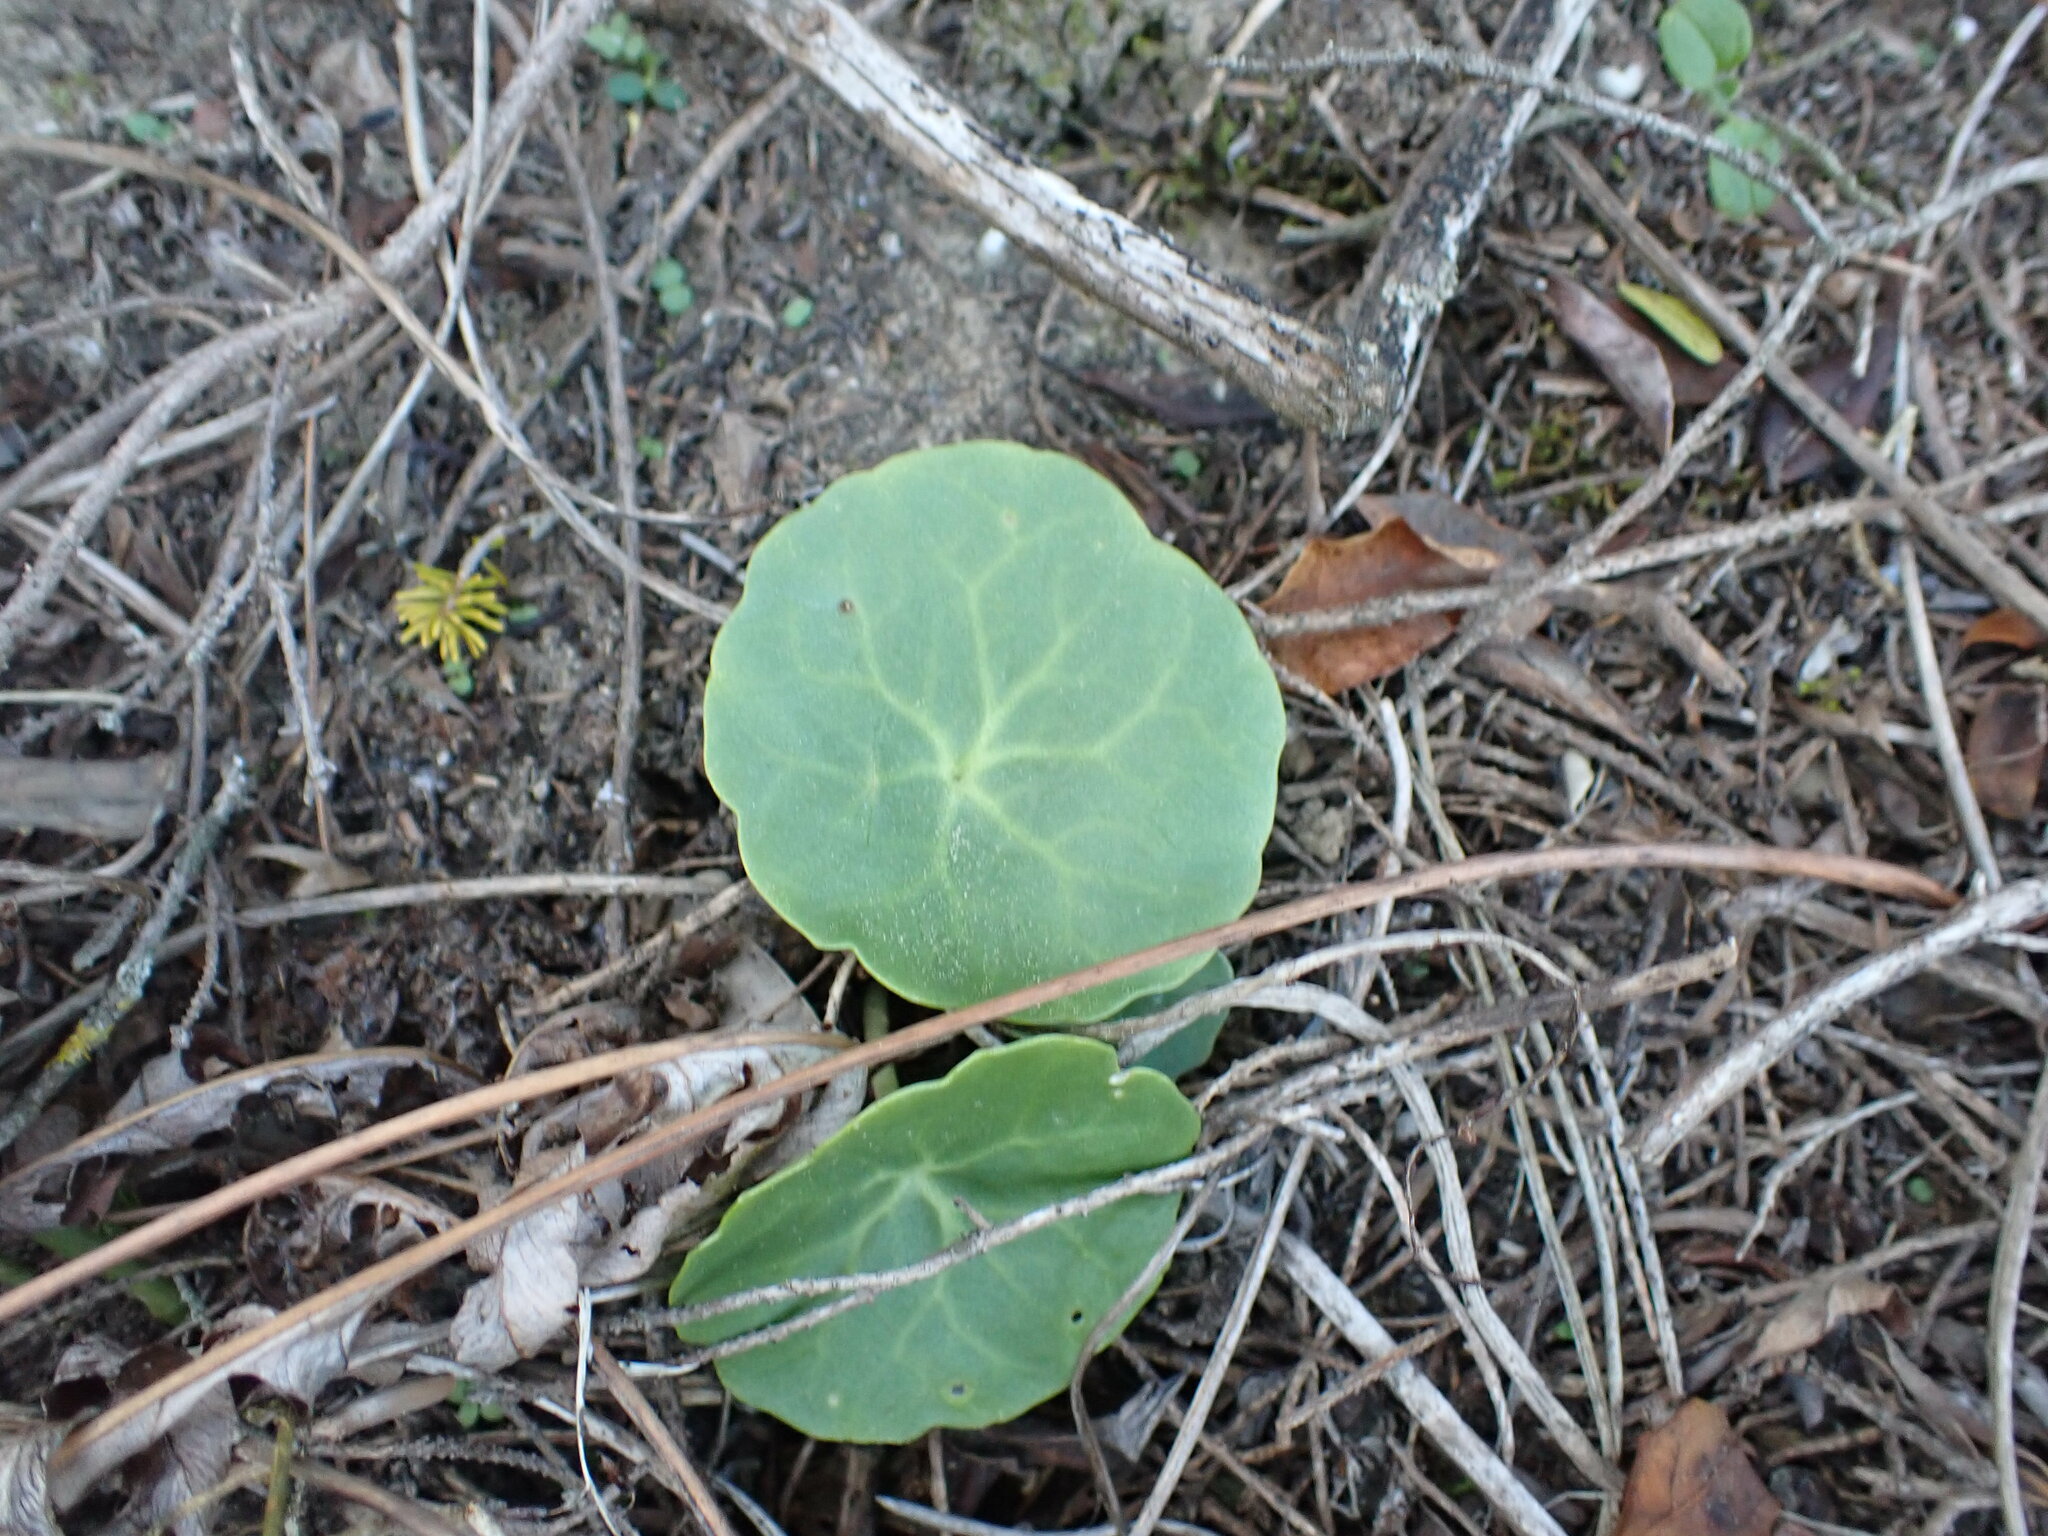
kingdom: Plantae
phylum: Tracheophyta
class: Magnoliopsida
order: Saxifragales
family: Crassulaceae
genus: Umbilicus
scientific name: Umbilicus rupestris
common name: Navelwort
